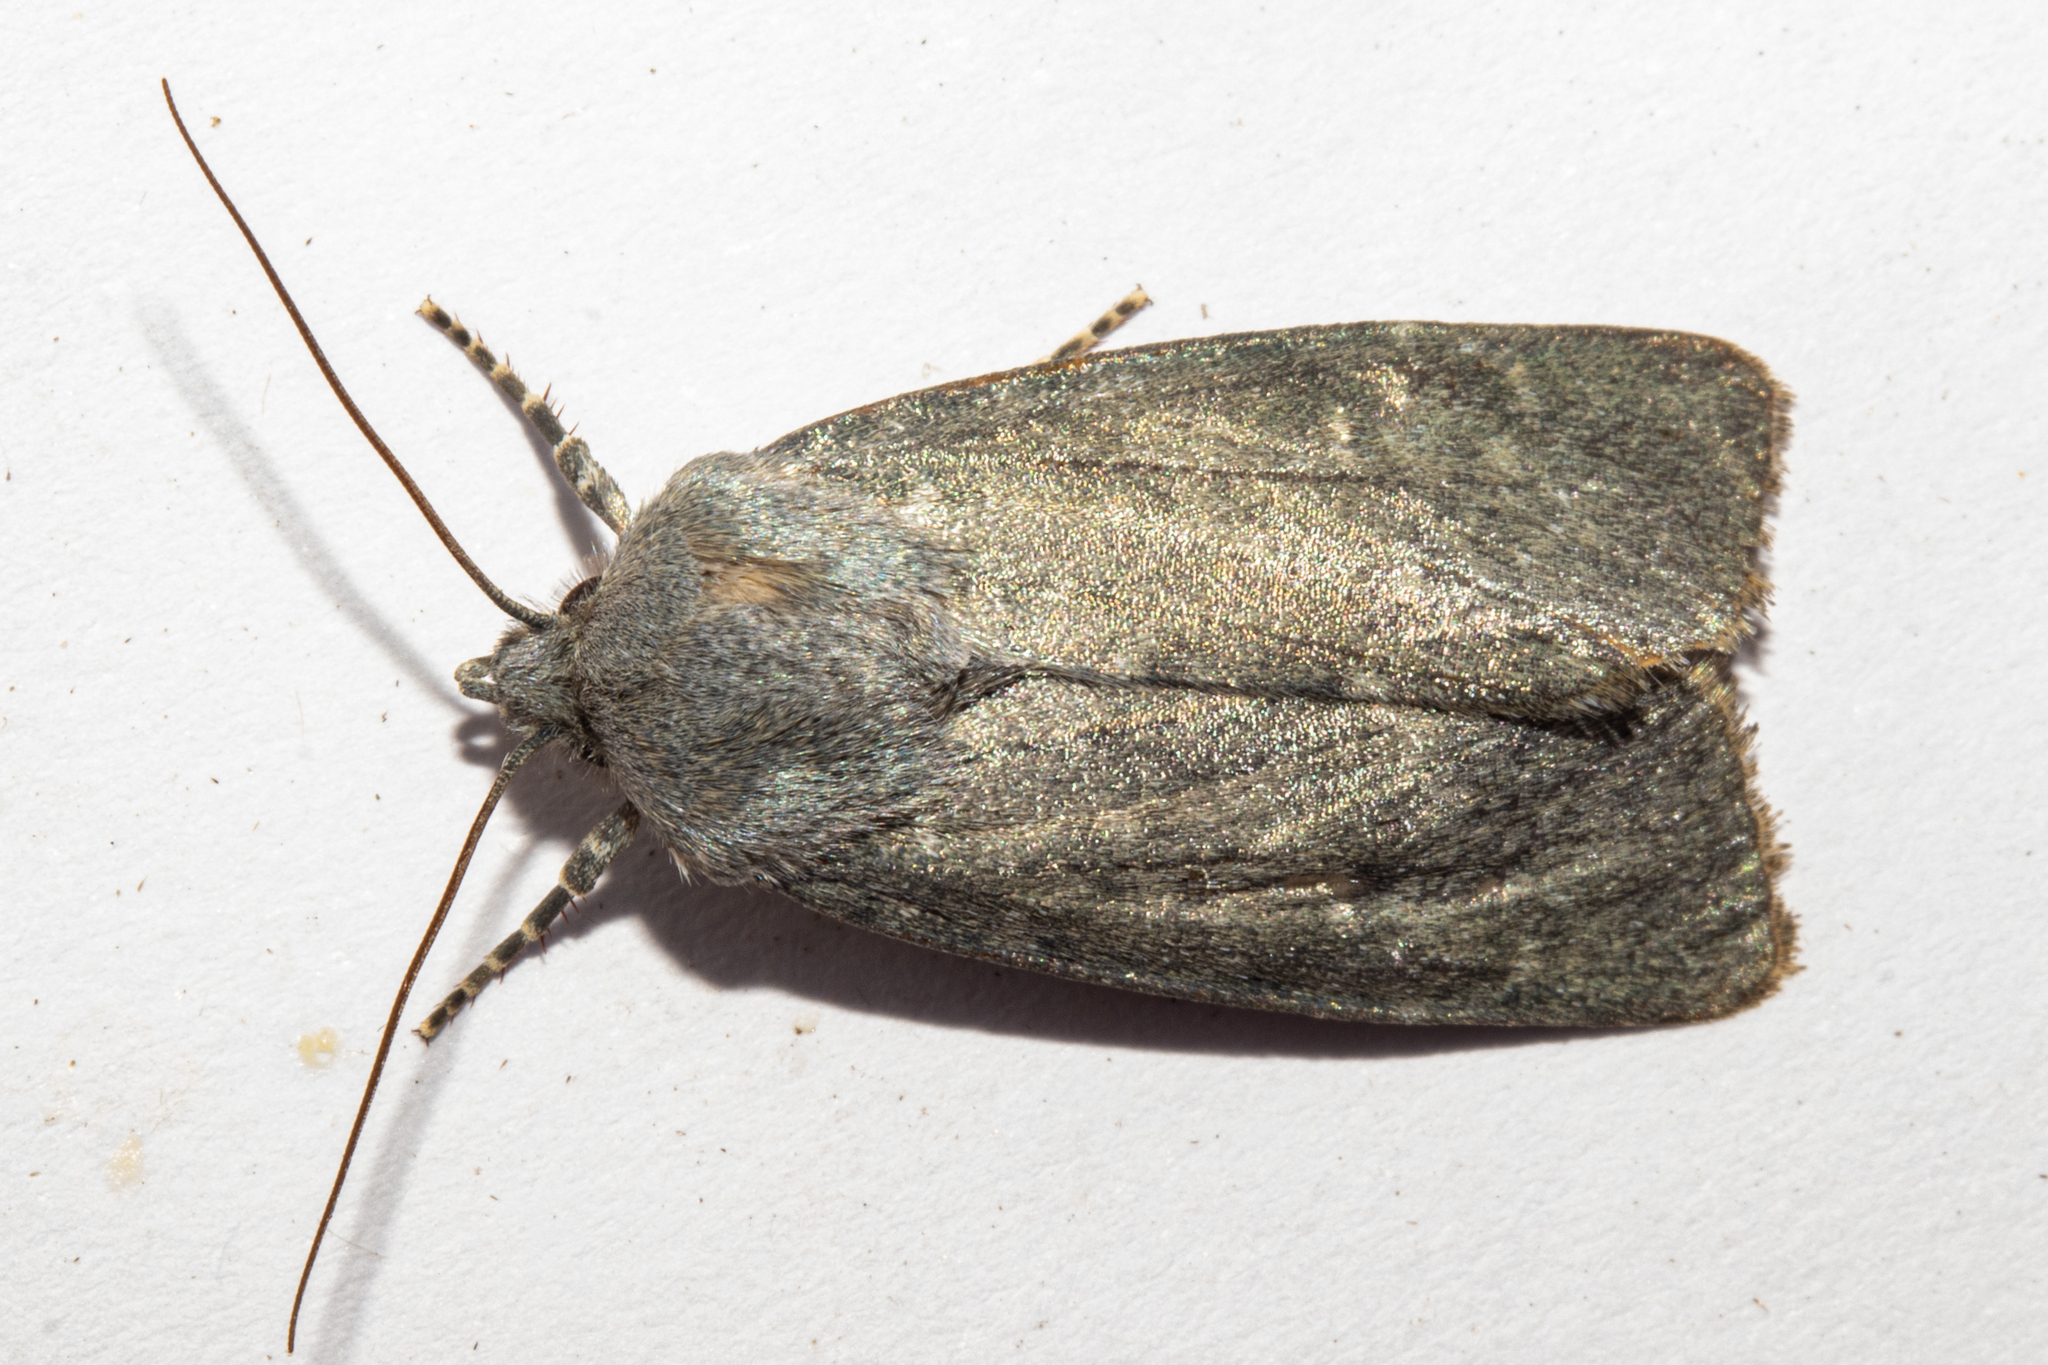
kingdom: Animalia
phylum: Arthropoda
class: Insecta
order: Lepidoptera
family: Noctuidae
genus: Physetica
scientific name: Physetica caerulea
